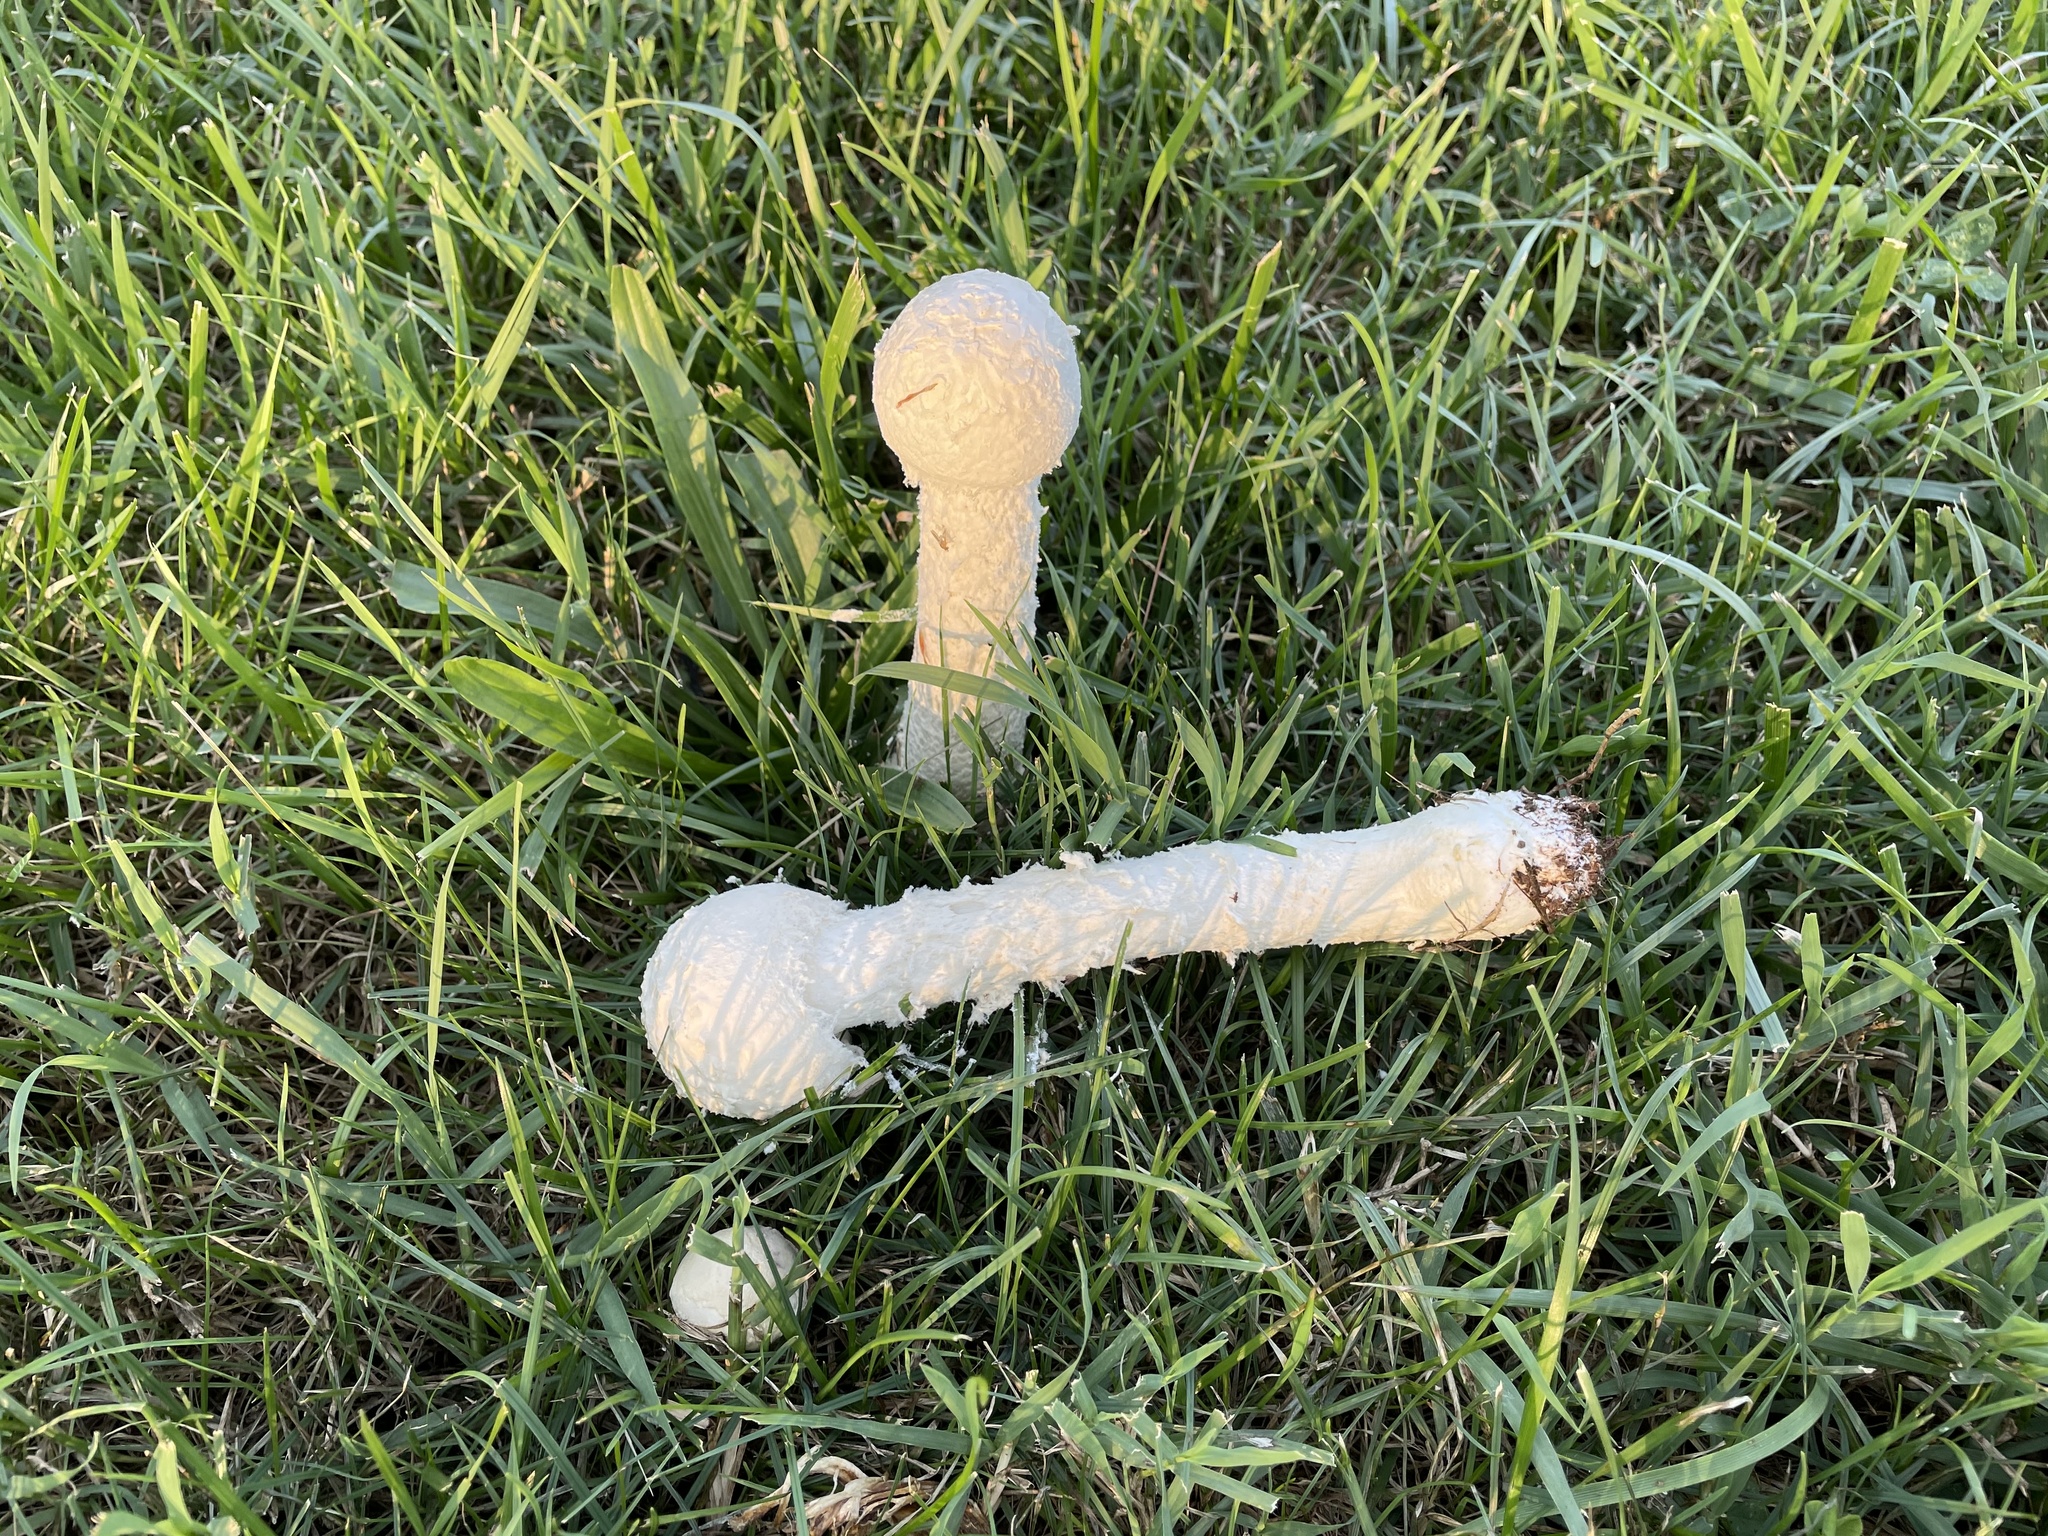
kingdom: Fungi
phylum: Basidiomycota
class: Agaricomycetes
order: Agaricales
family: Amanitaceae
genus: Amanita
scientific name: Amanita thiersii
